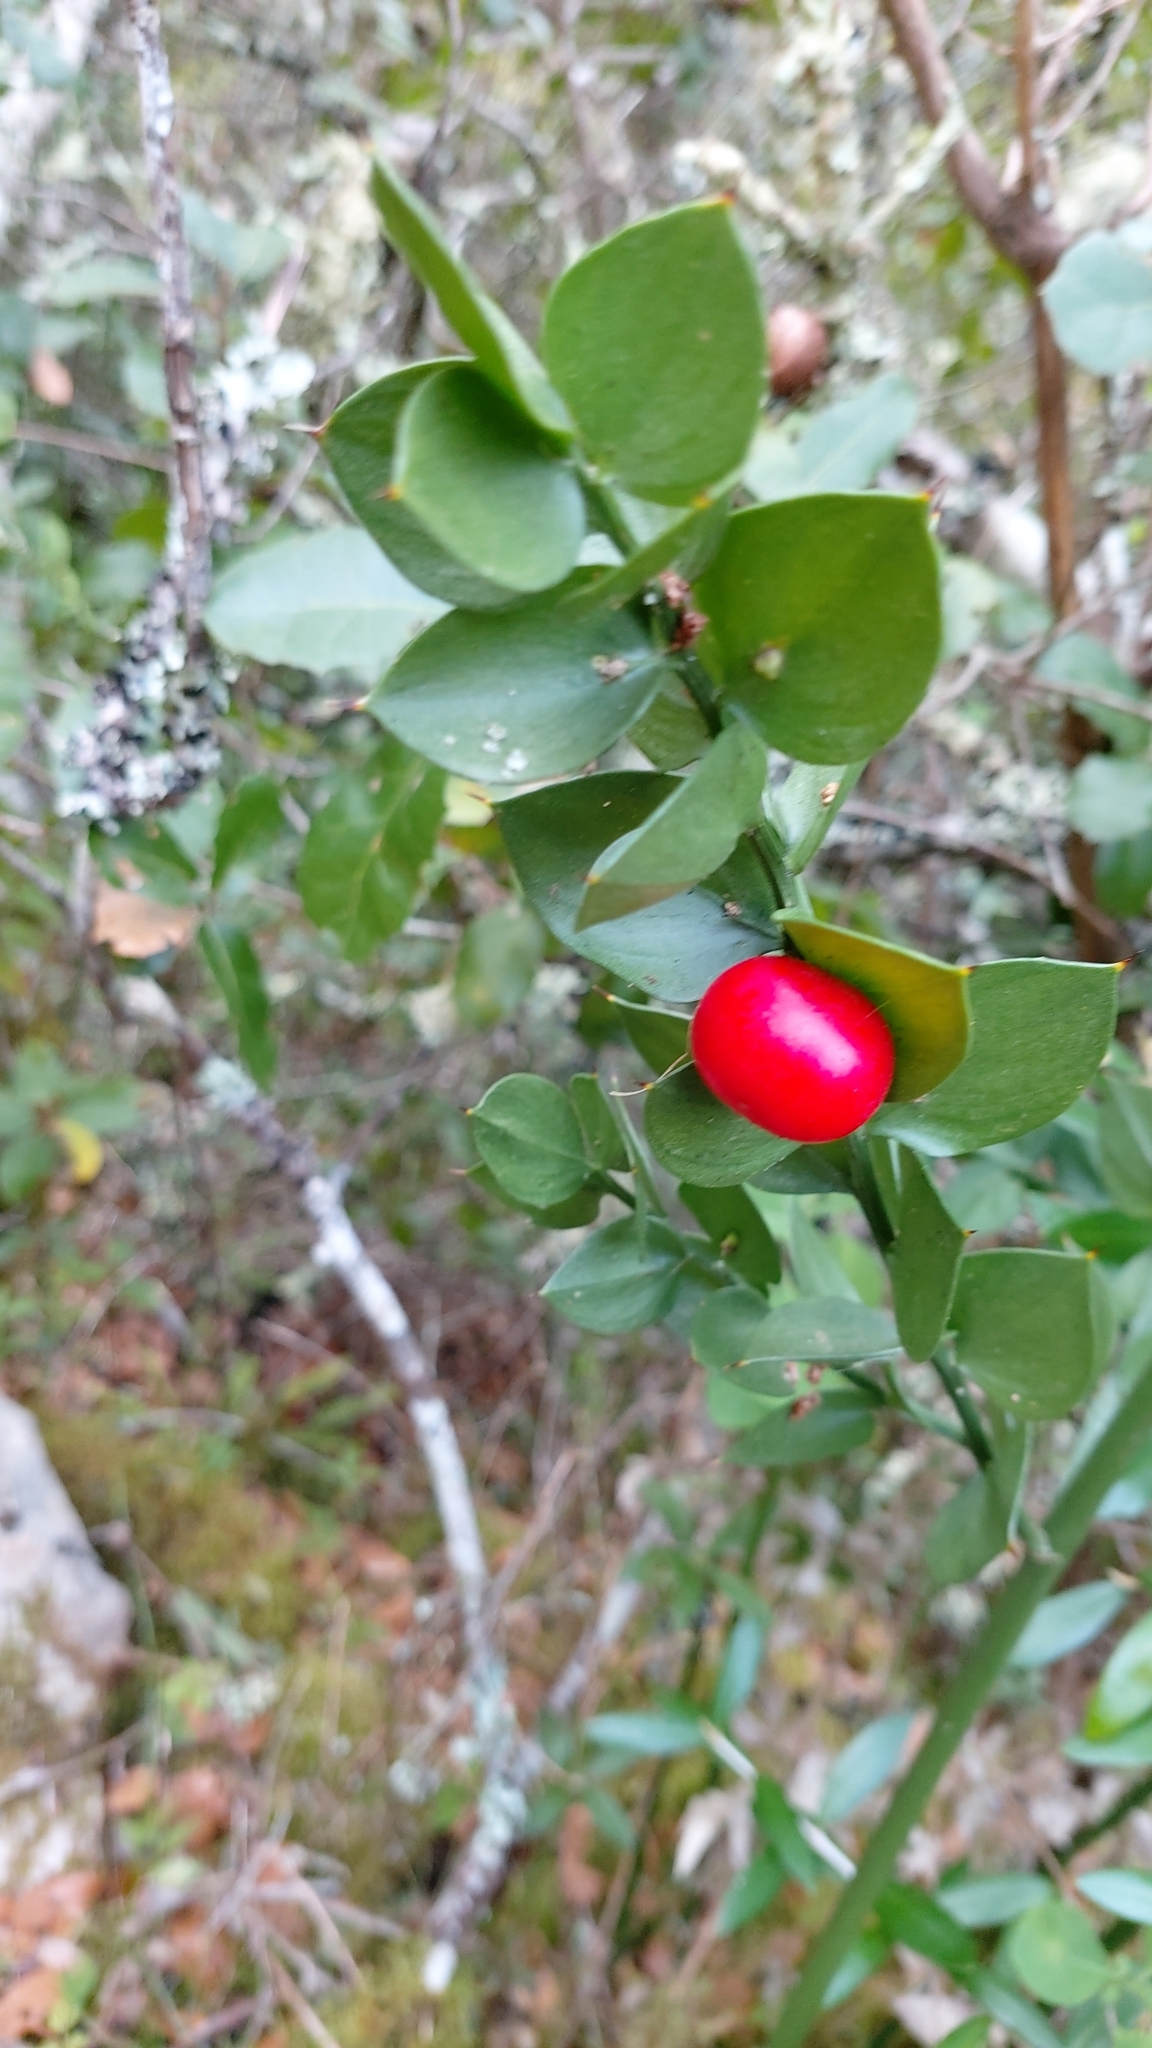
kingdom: Plantae
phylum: Tracheophyta
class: Liliopsida
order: Asparagales
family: Asparagaceae
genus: Ruscus
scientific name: Ruscus aculeatus
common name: Butcher's-broom
